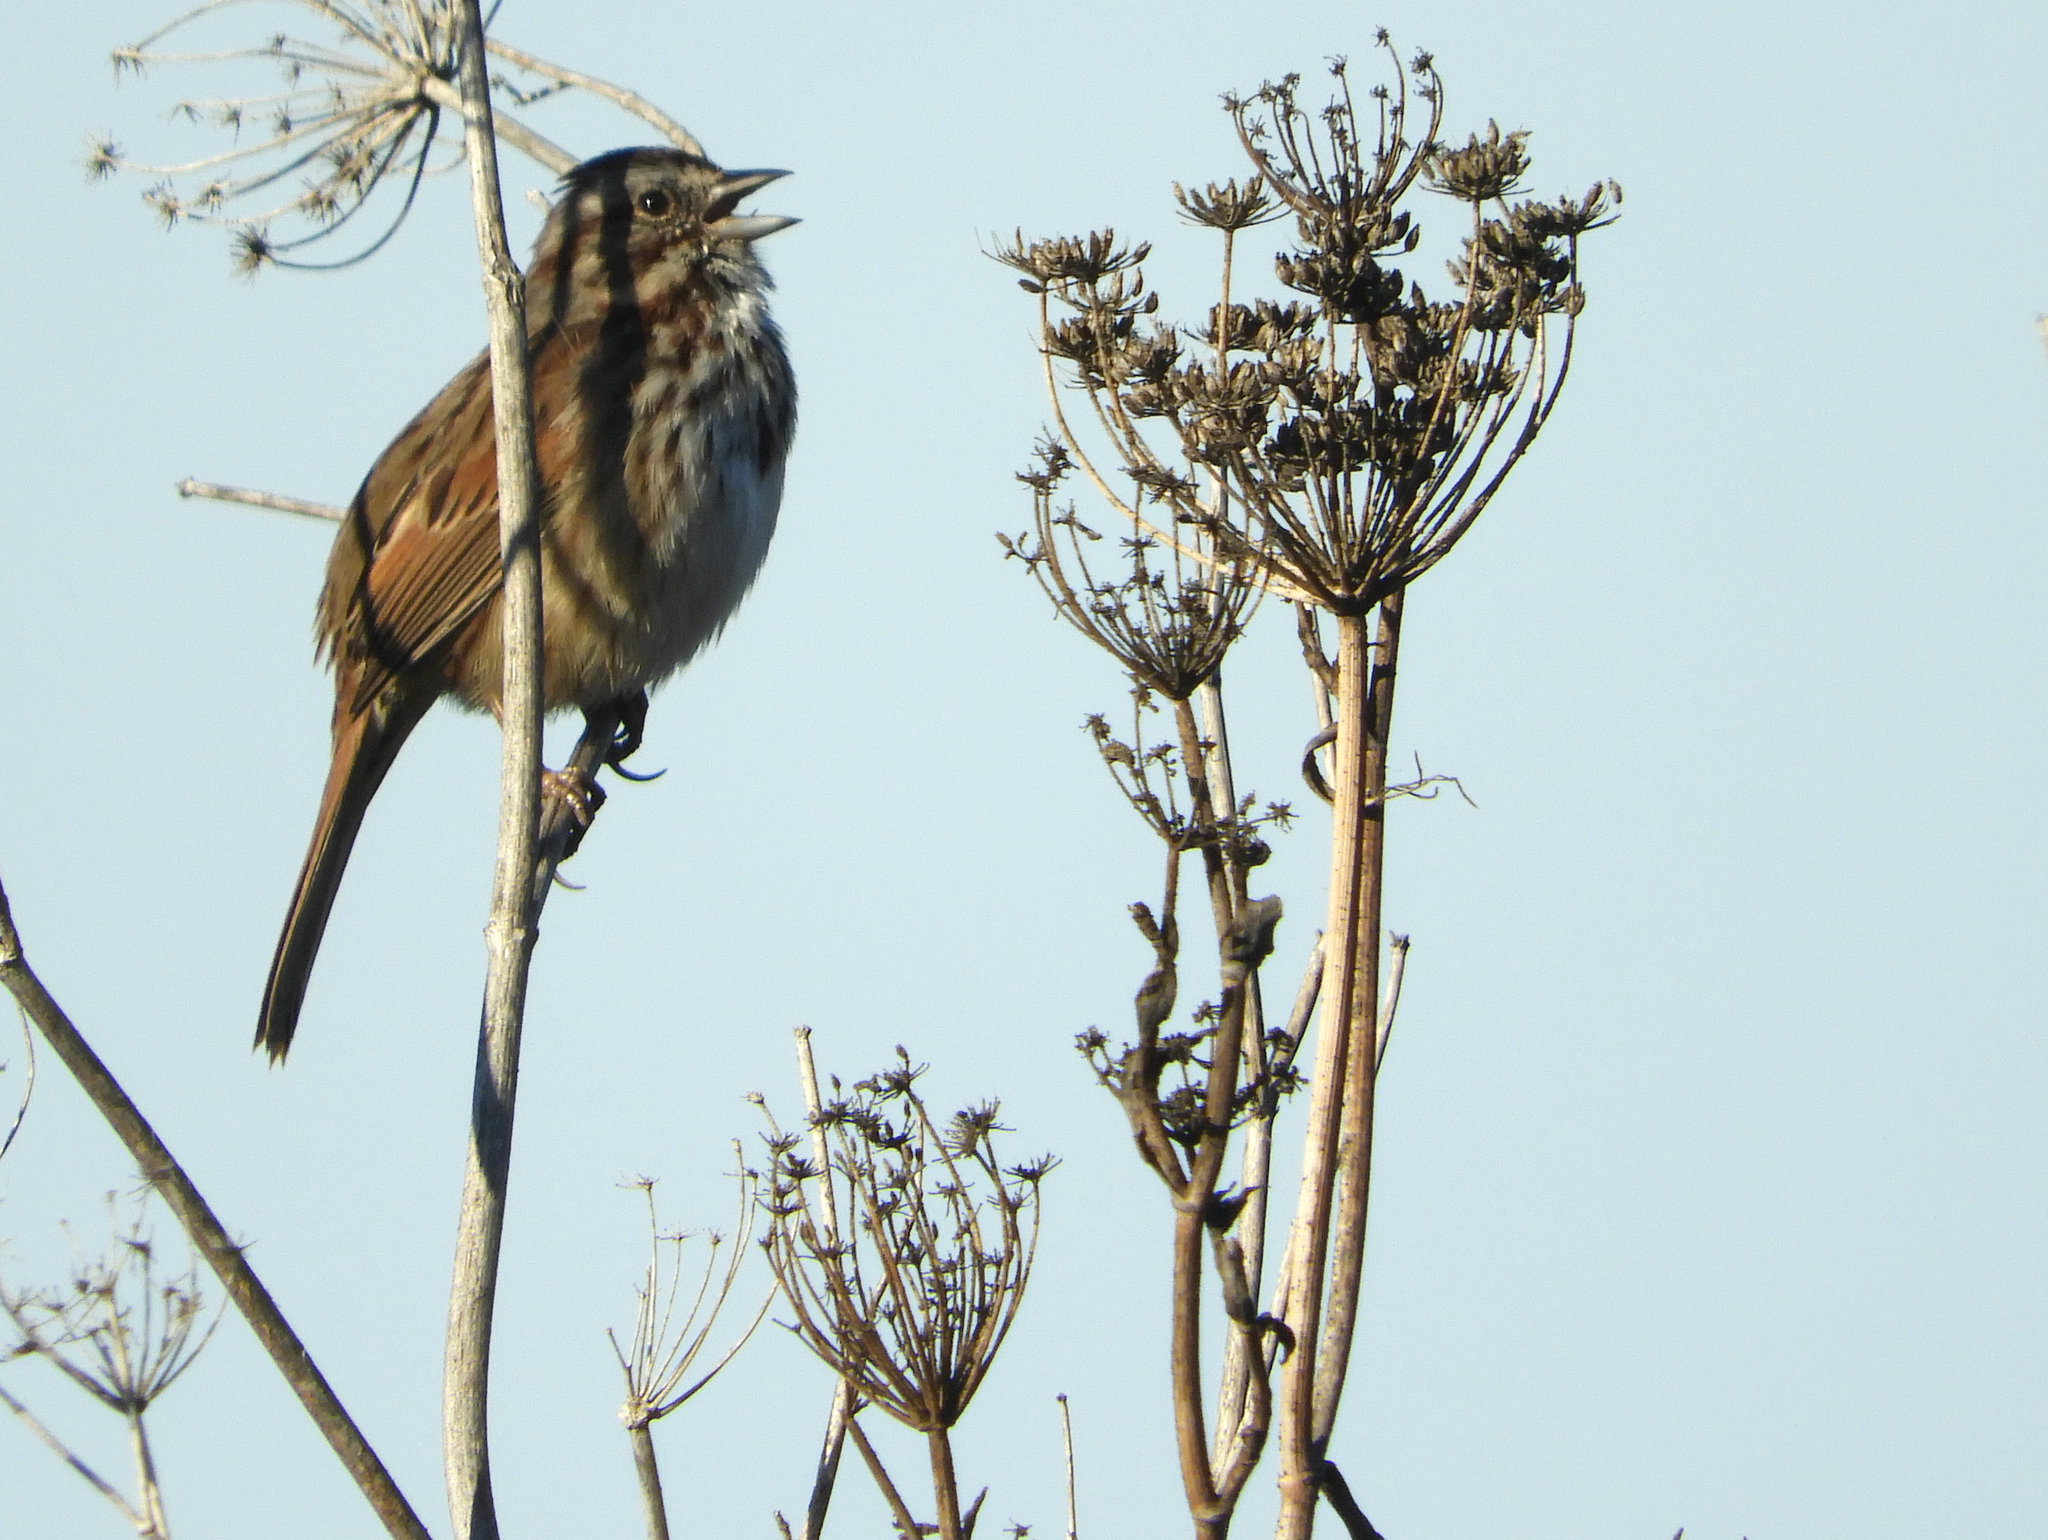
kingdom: Animalia
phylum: Chordata
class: Aves
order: Passeriformes
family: Passerellidae
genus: Melospiza
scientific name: Melospiza melodia
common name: Song sparrow
